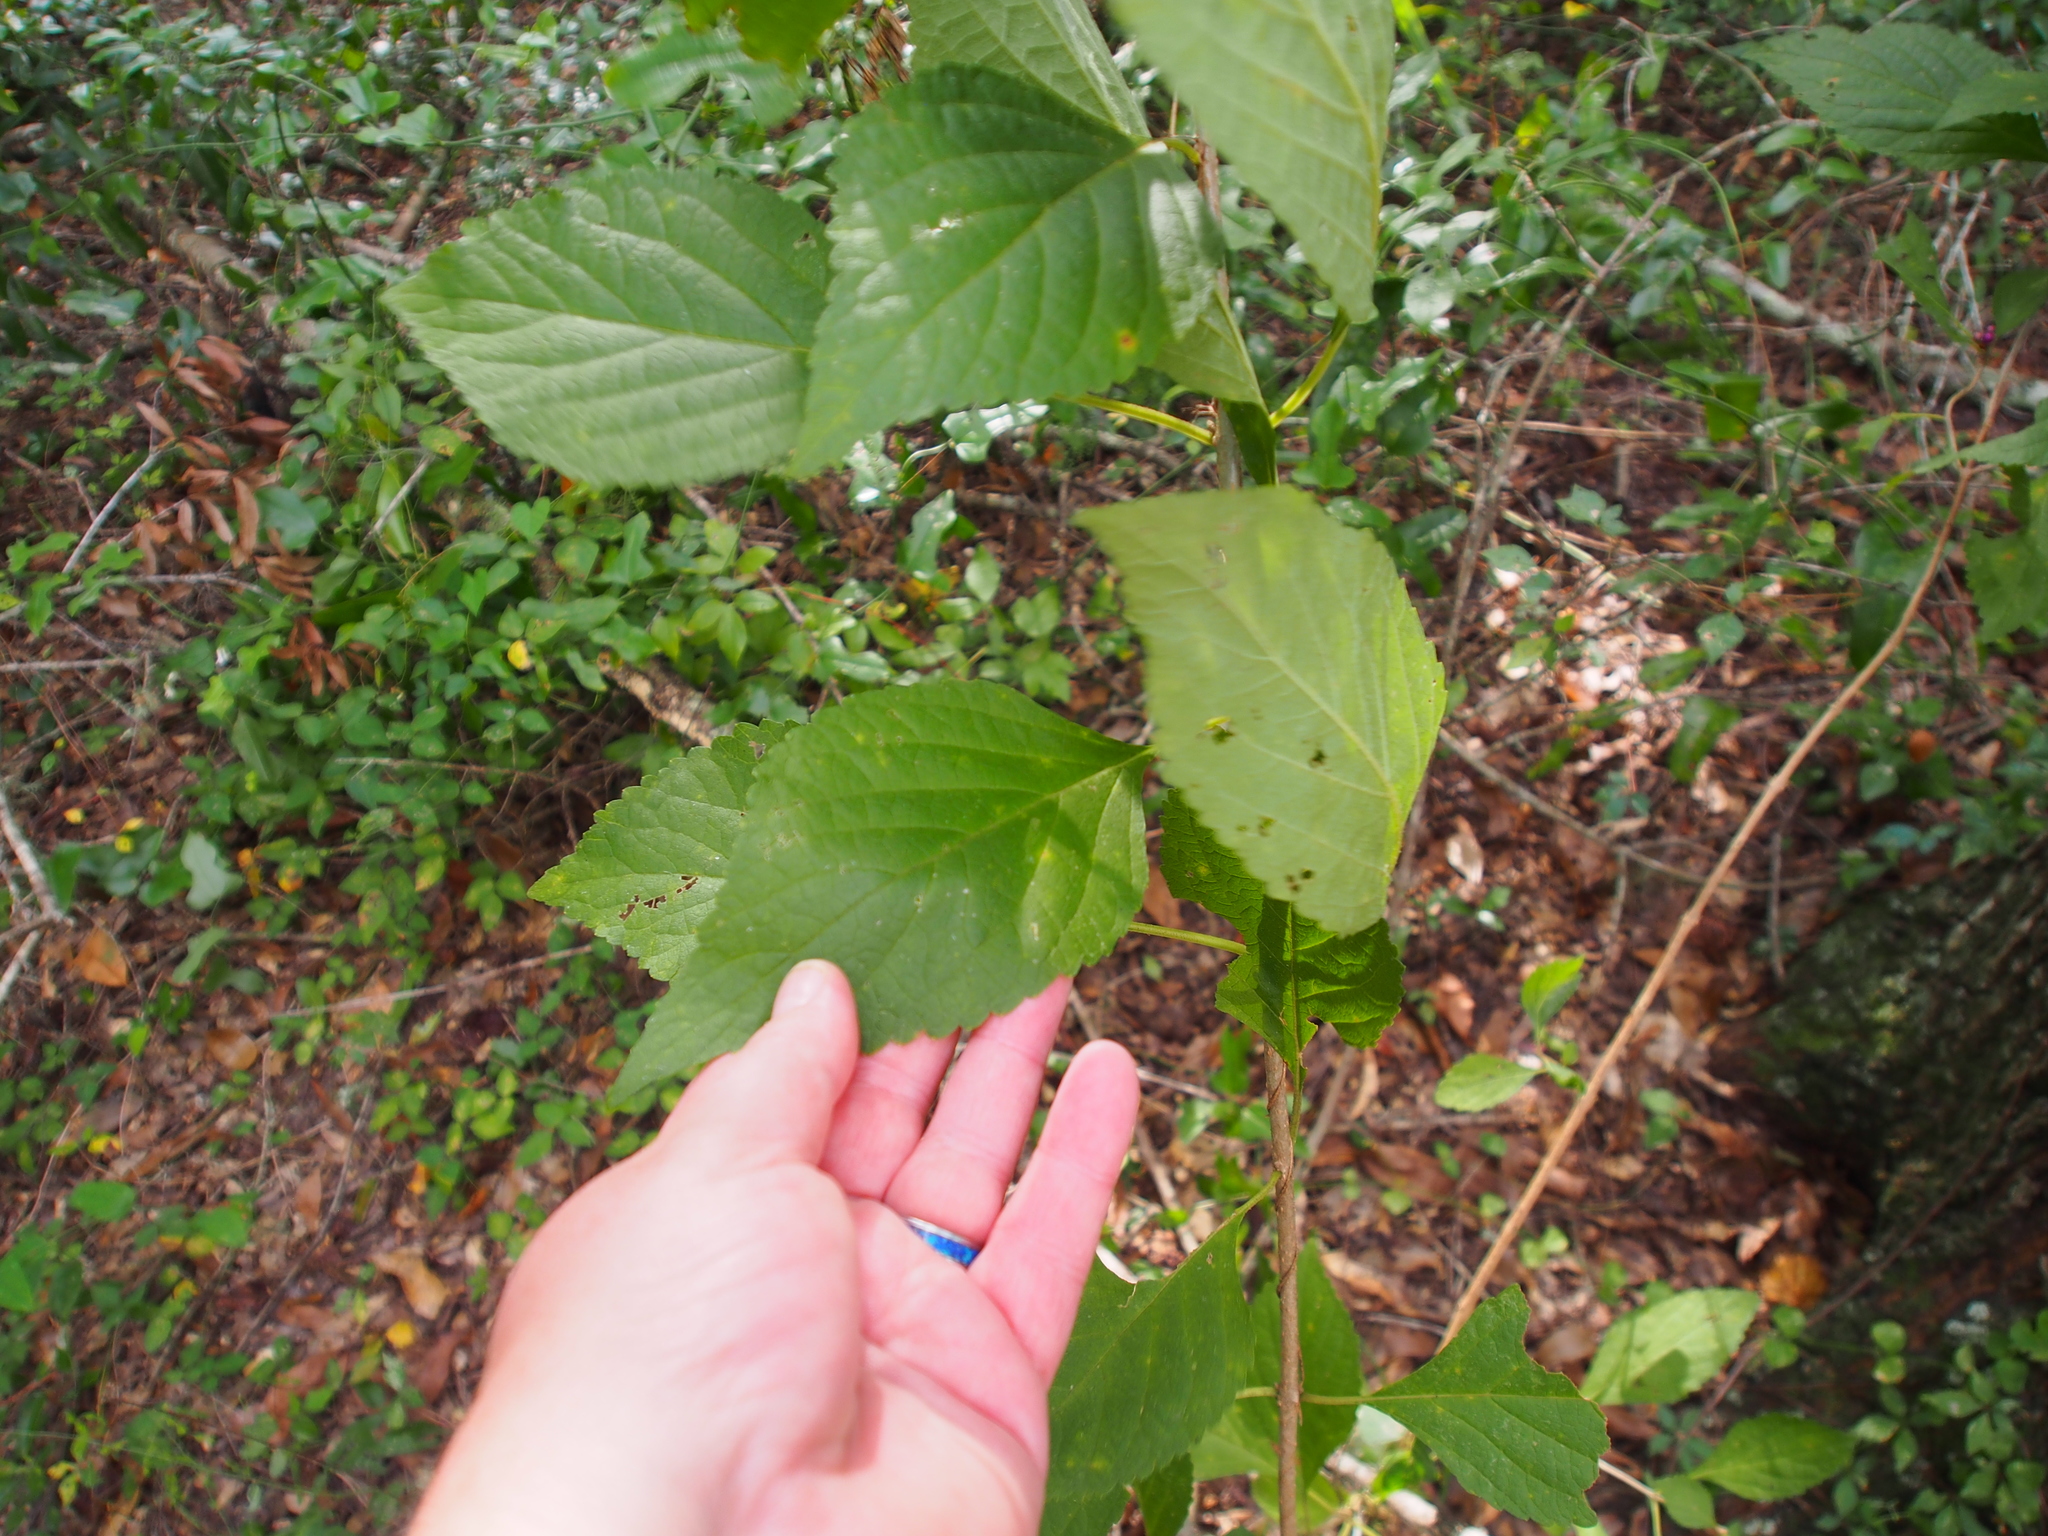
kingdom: Plantae
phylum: Tracheophyta
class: Magnoliopsida
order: Lamiales
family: Lamiaceae
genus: Callicarpa
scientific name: Callicarpa americana
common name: American beautyberry
